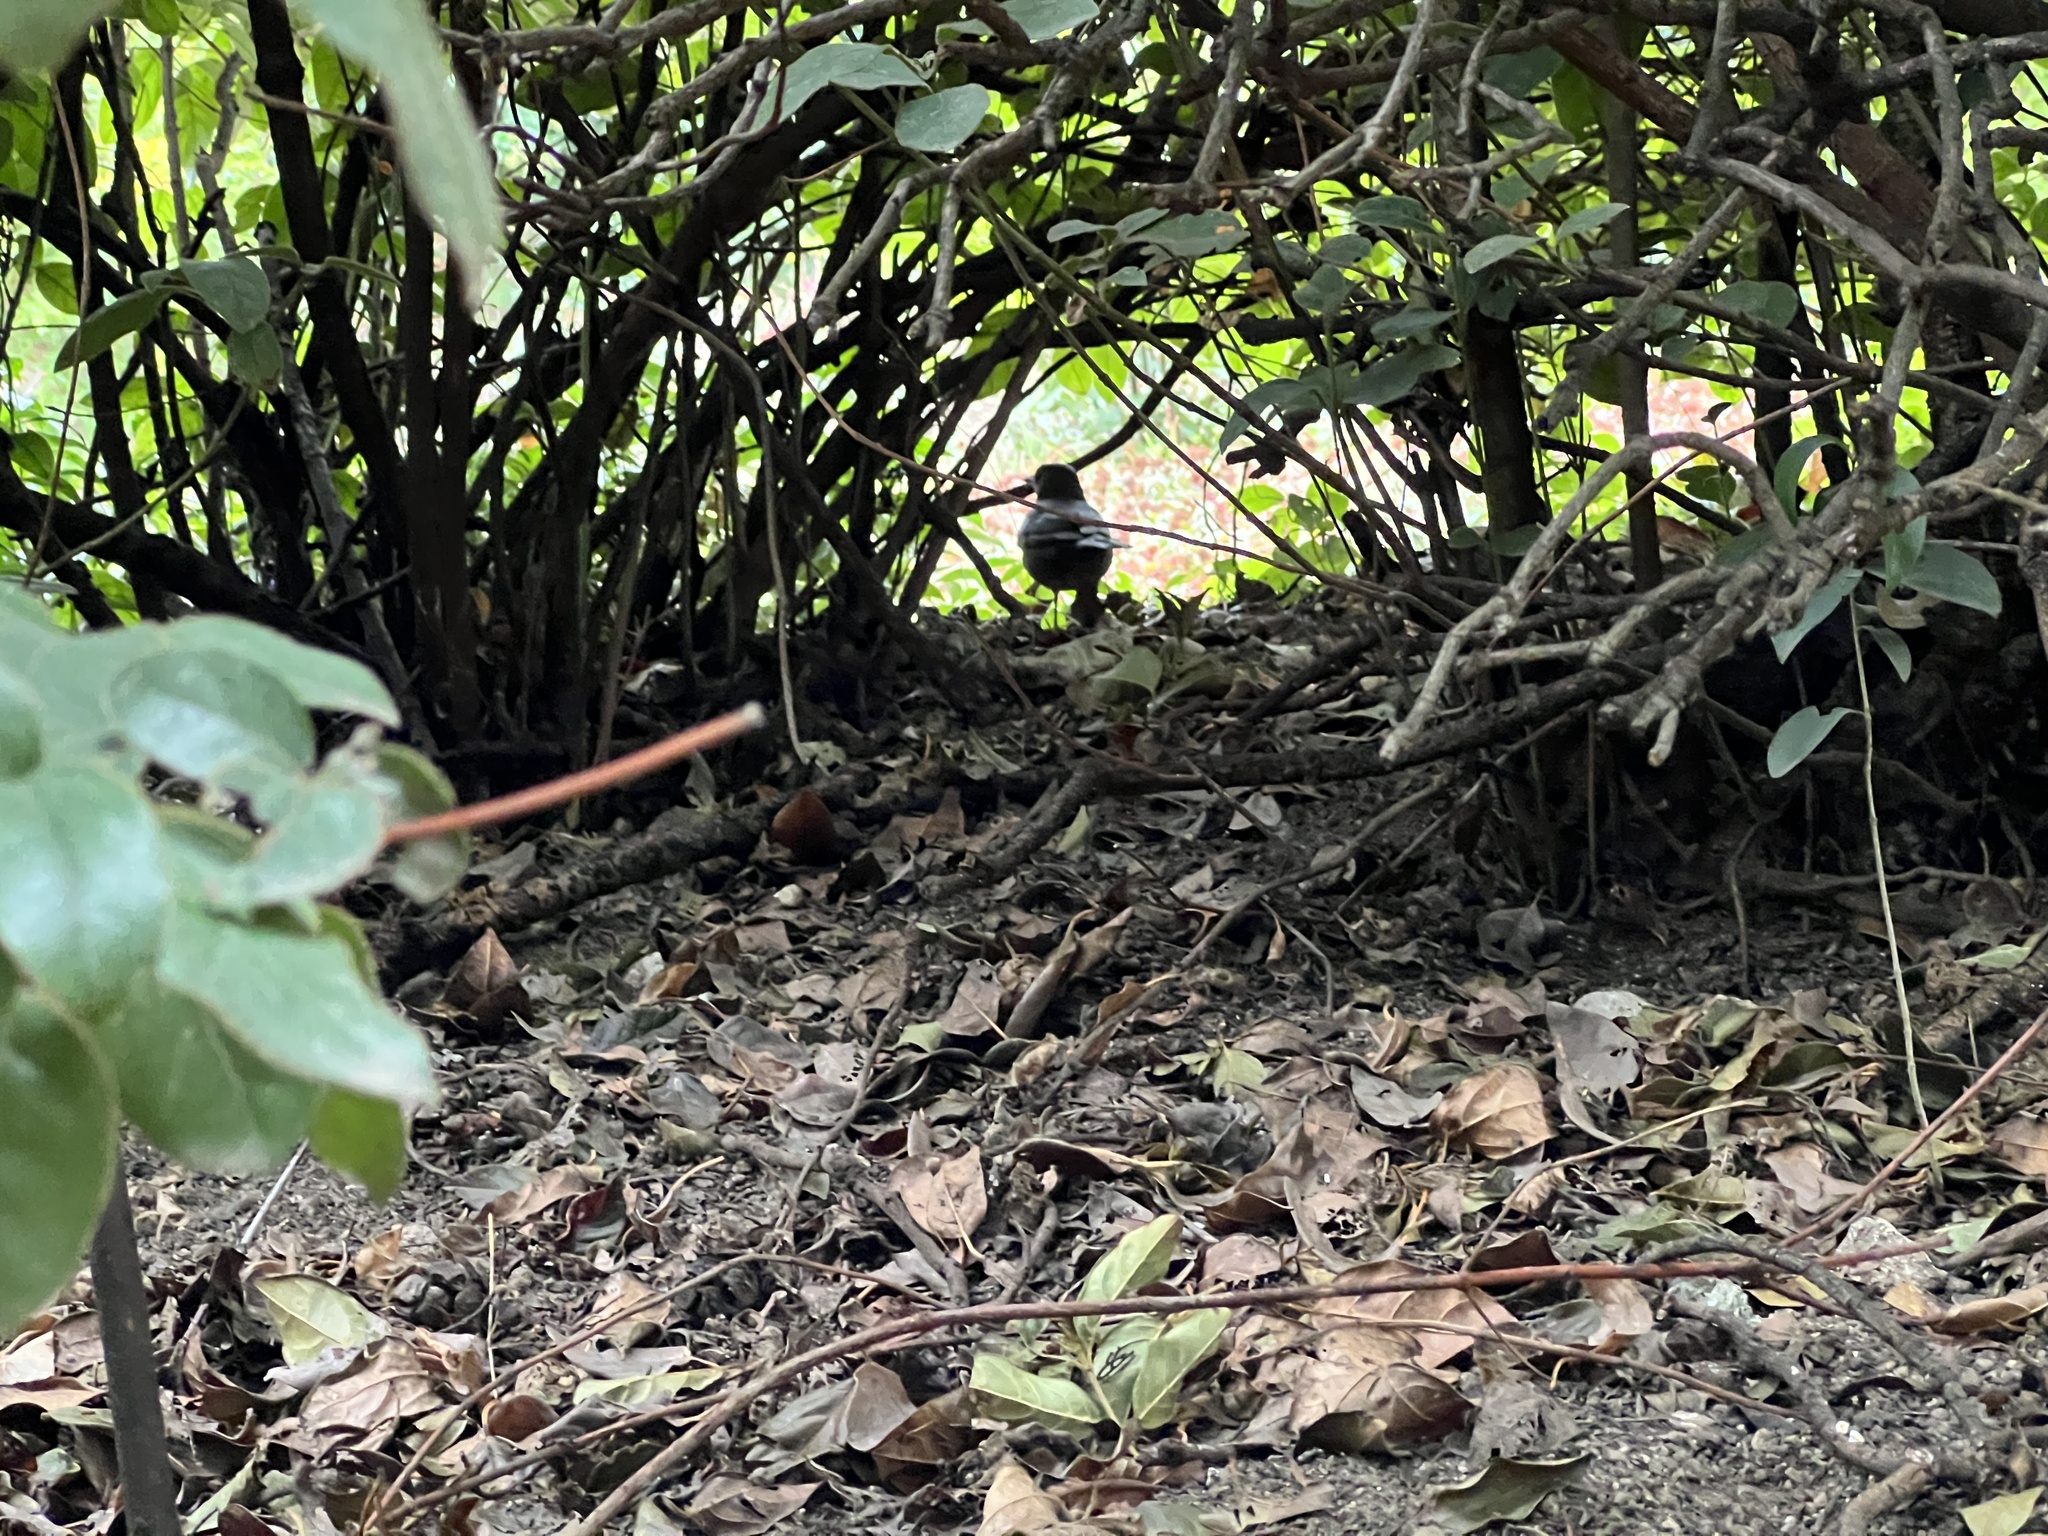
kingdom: Animalia
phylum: Chordata
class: Aves
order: Passeriformes
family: Turdidae
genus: Turdus
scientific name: Turdus merula
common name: Common blackbird
